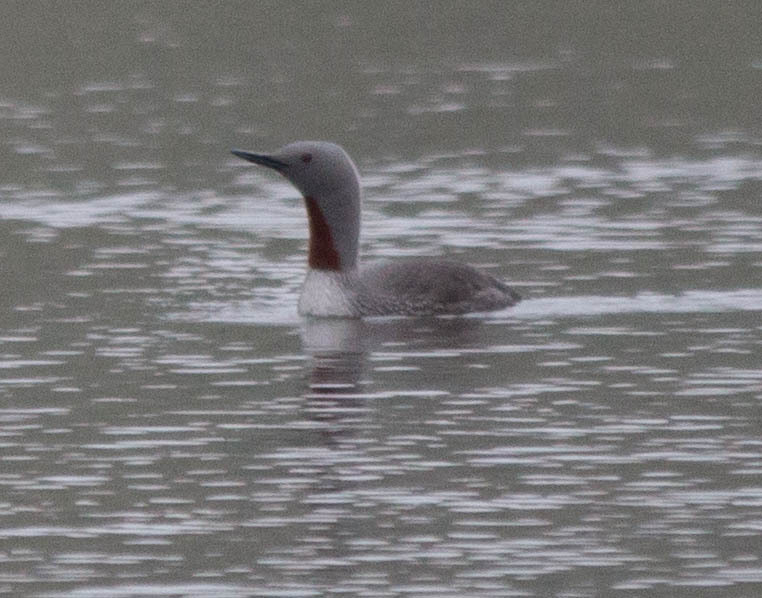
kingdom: Animalia
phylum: Chordata
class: Aves
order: Gaviiformes
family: Gaviidae
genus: Gavia
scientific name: Gavia stellata
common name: Red-throated loon
